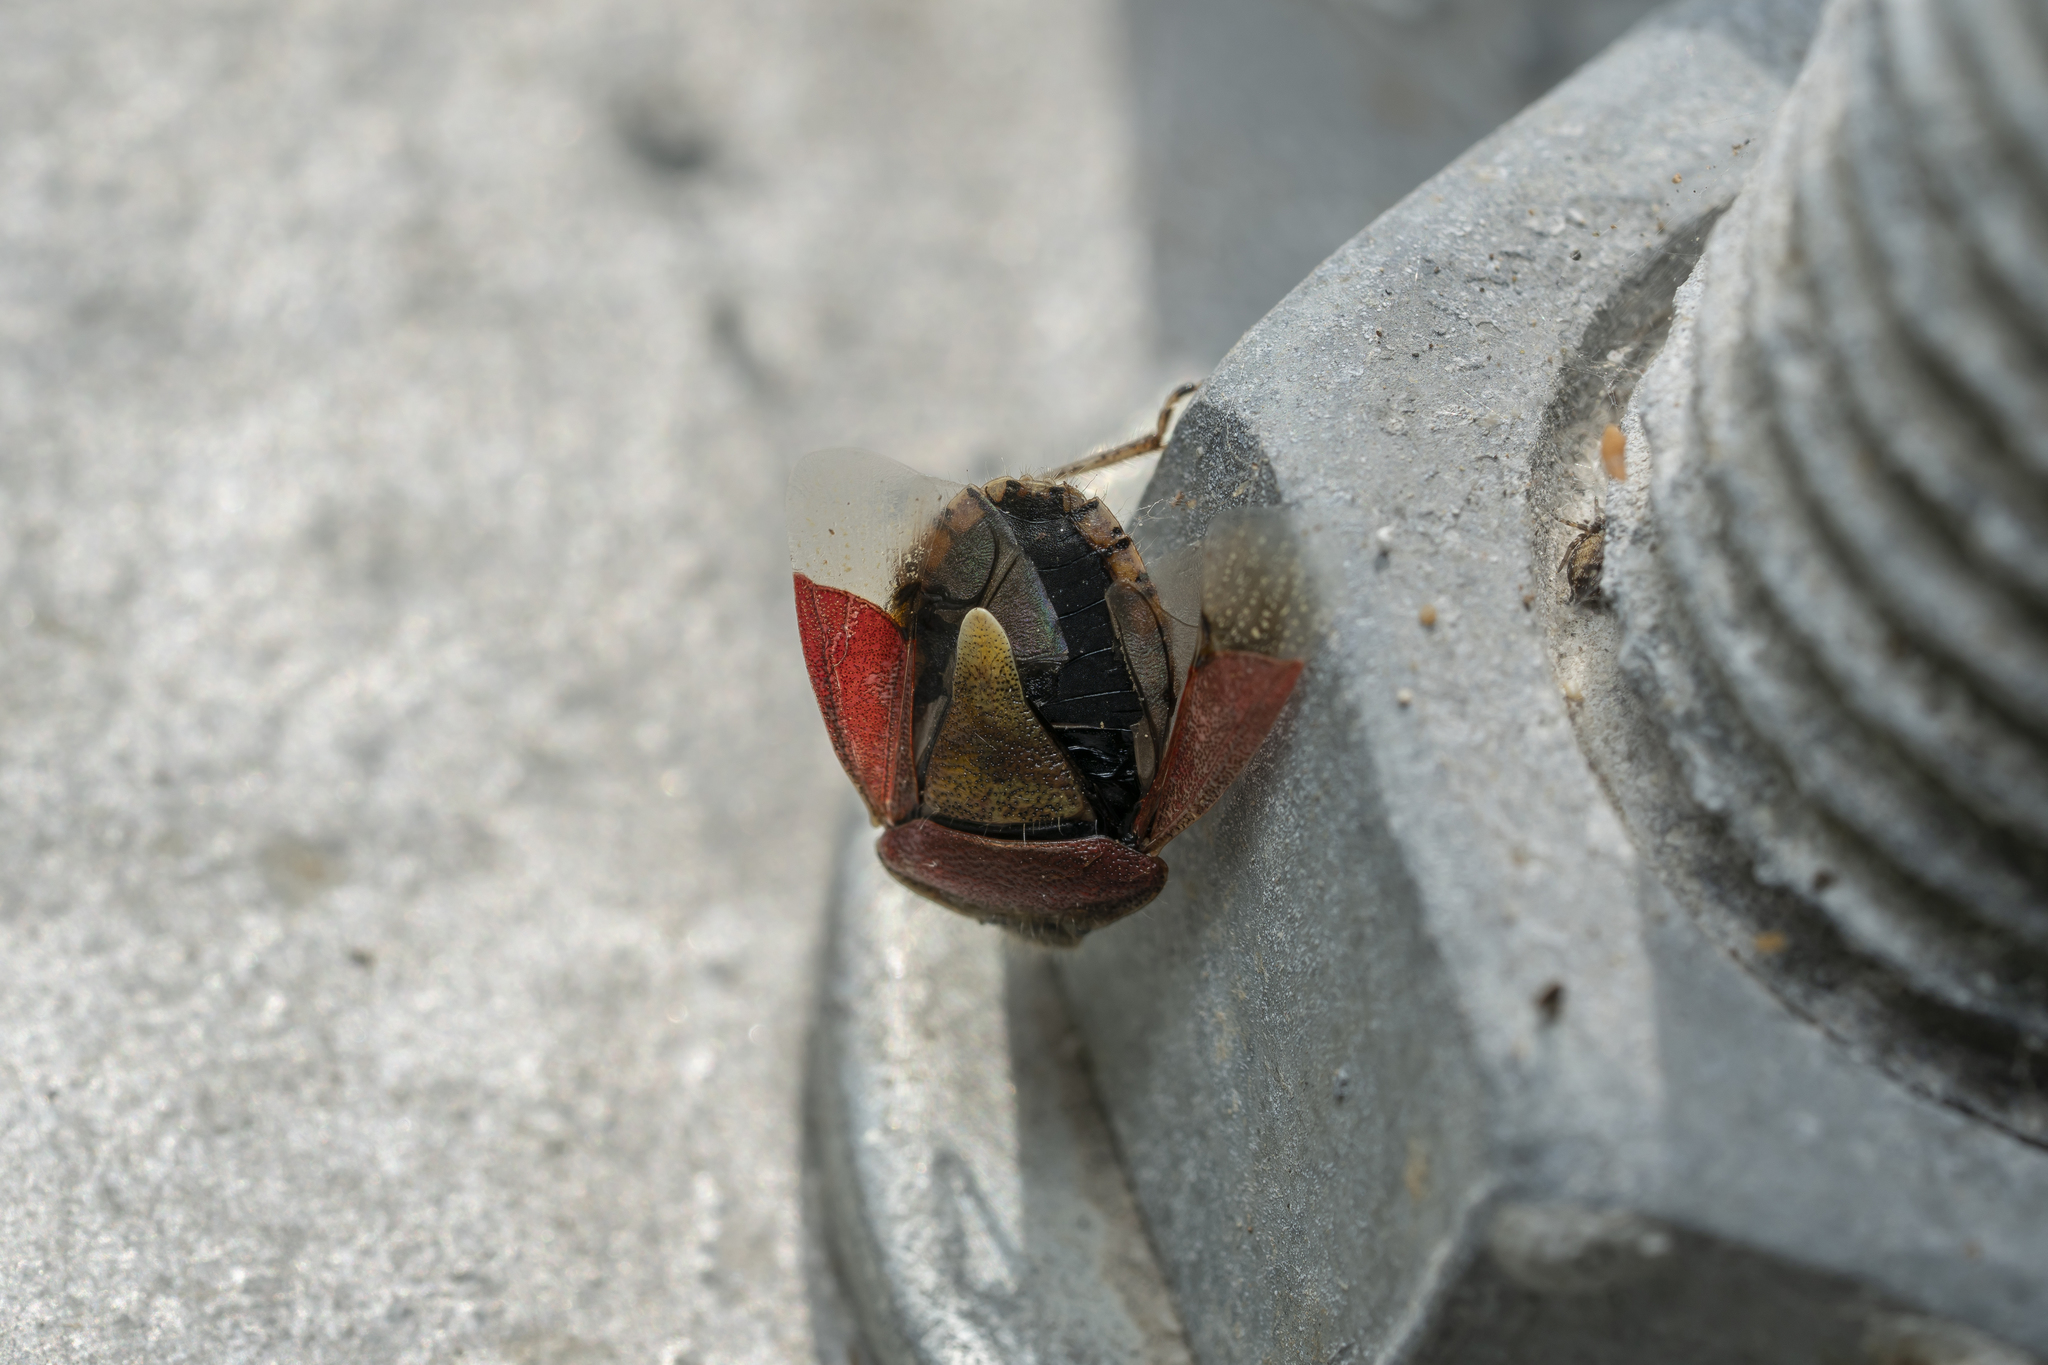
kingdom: Animalia
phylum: Arthropoda
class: Insecta
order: Hemiptera
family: Pentatomidae
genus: Dolycoris
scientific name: Dolycoris baccarum
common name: Sloe bug
